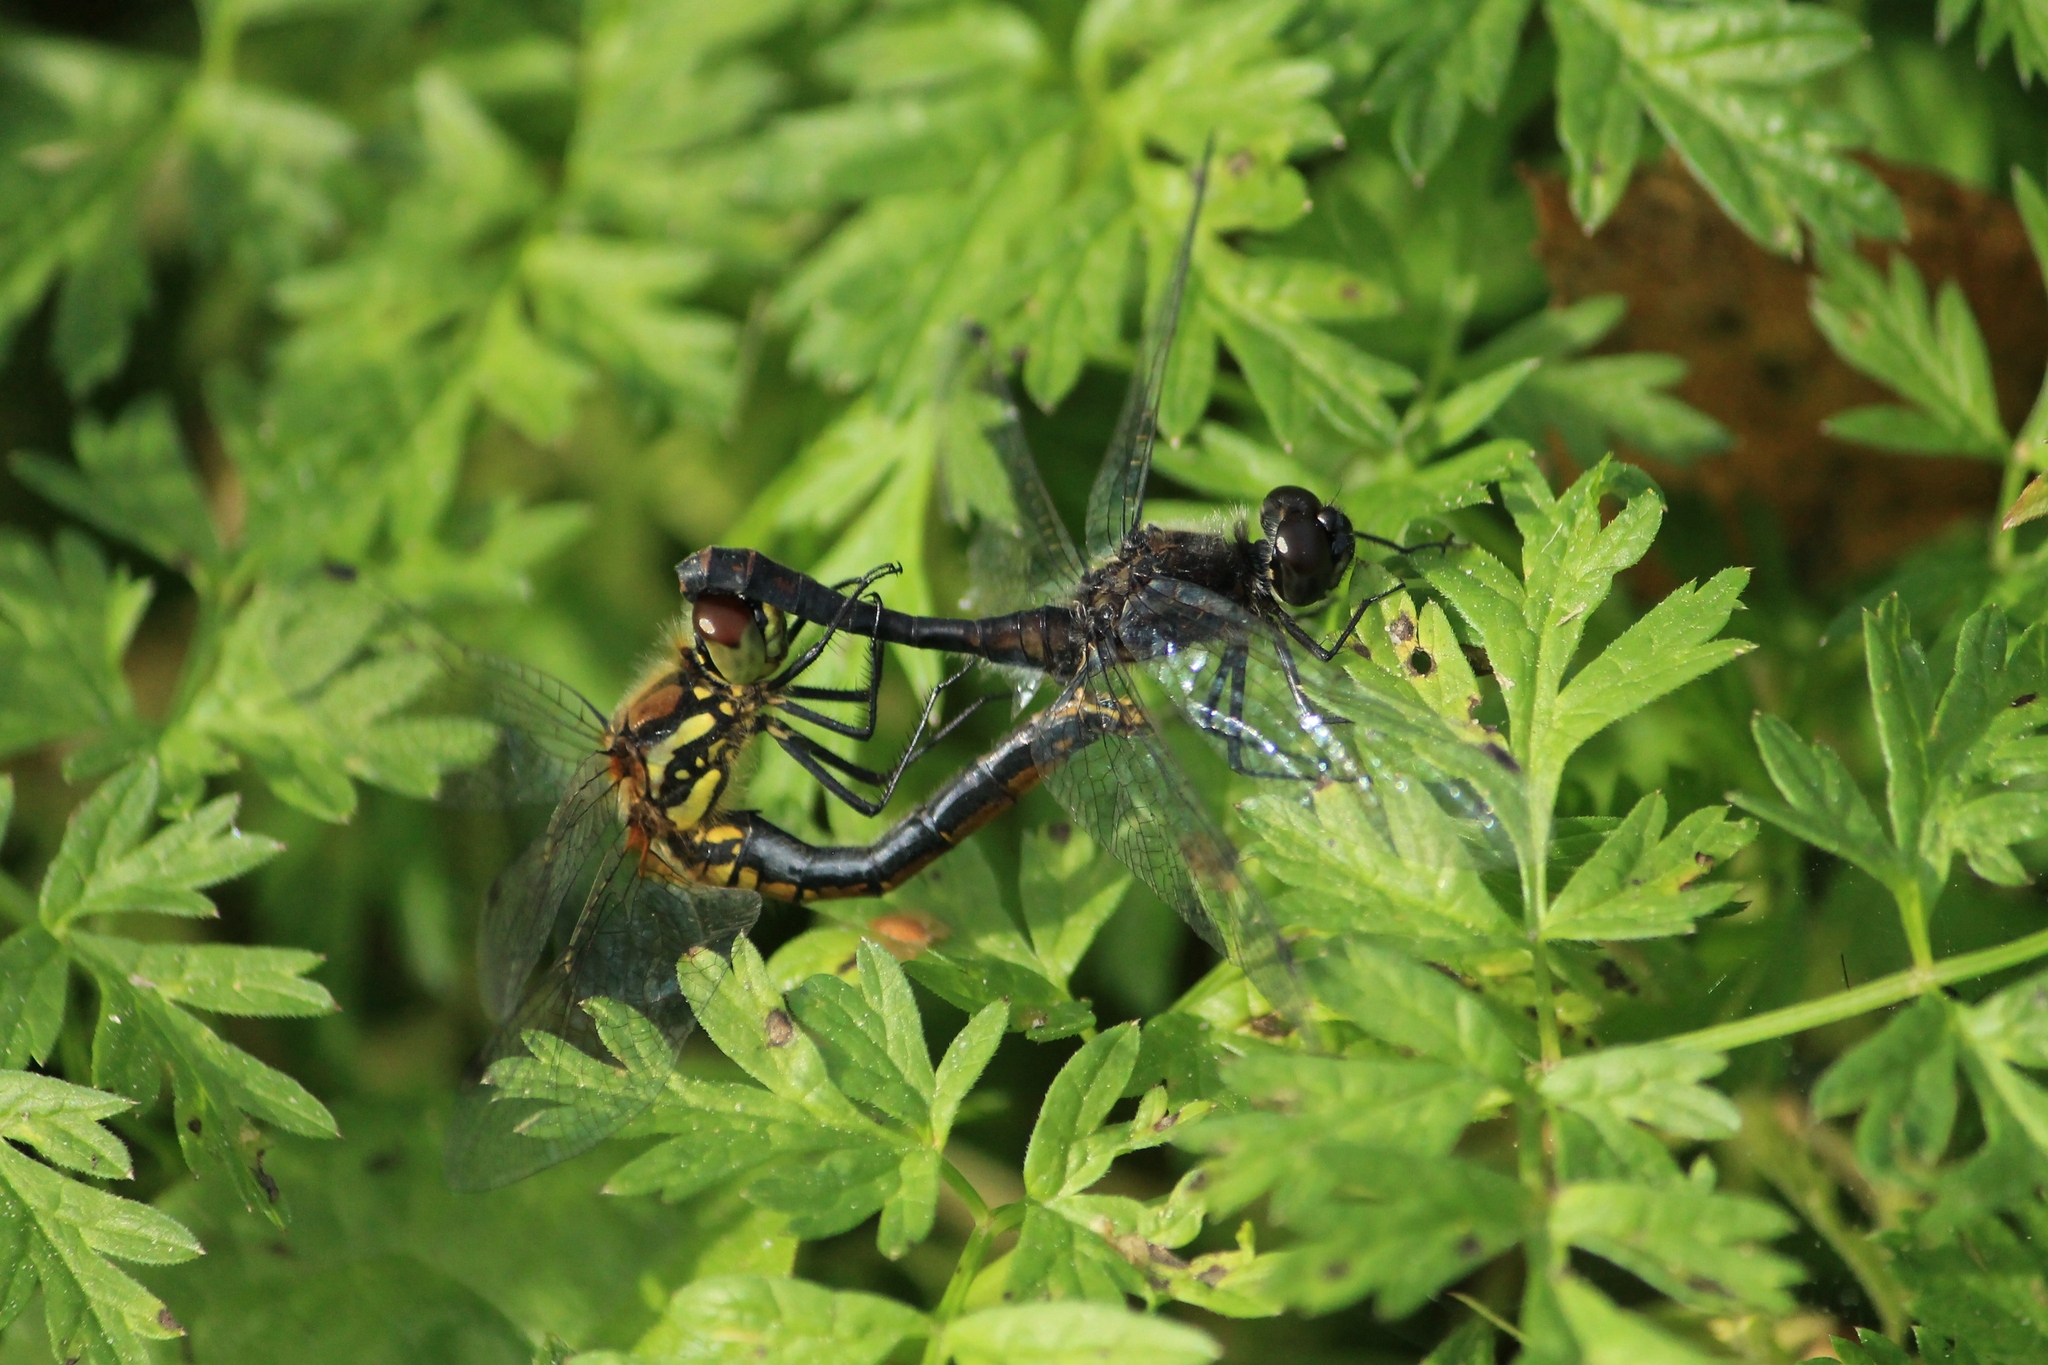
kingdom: Animalia
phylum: Arthropoda
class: Insecta
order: Odonata
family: Libellulidae
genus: Sympetrum
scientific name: Sympetrum danae
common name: Black darter
